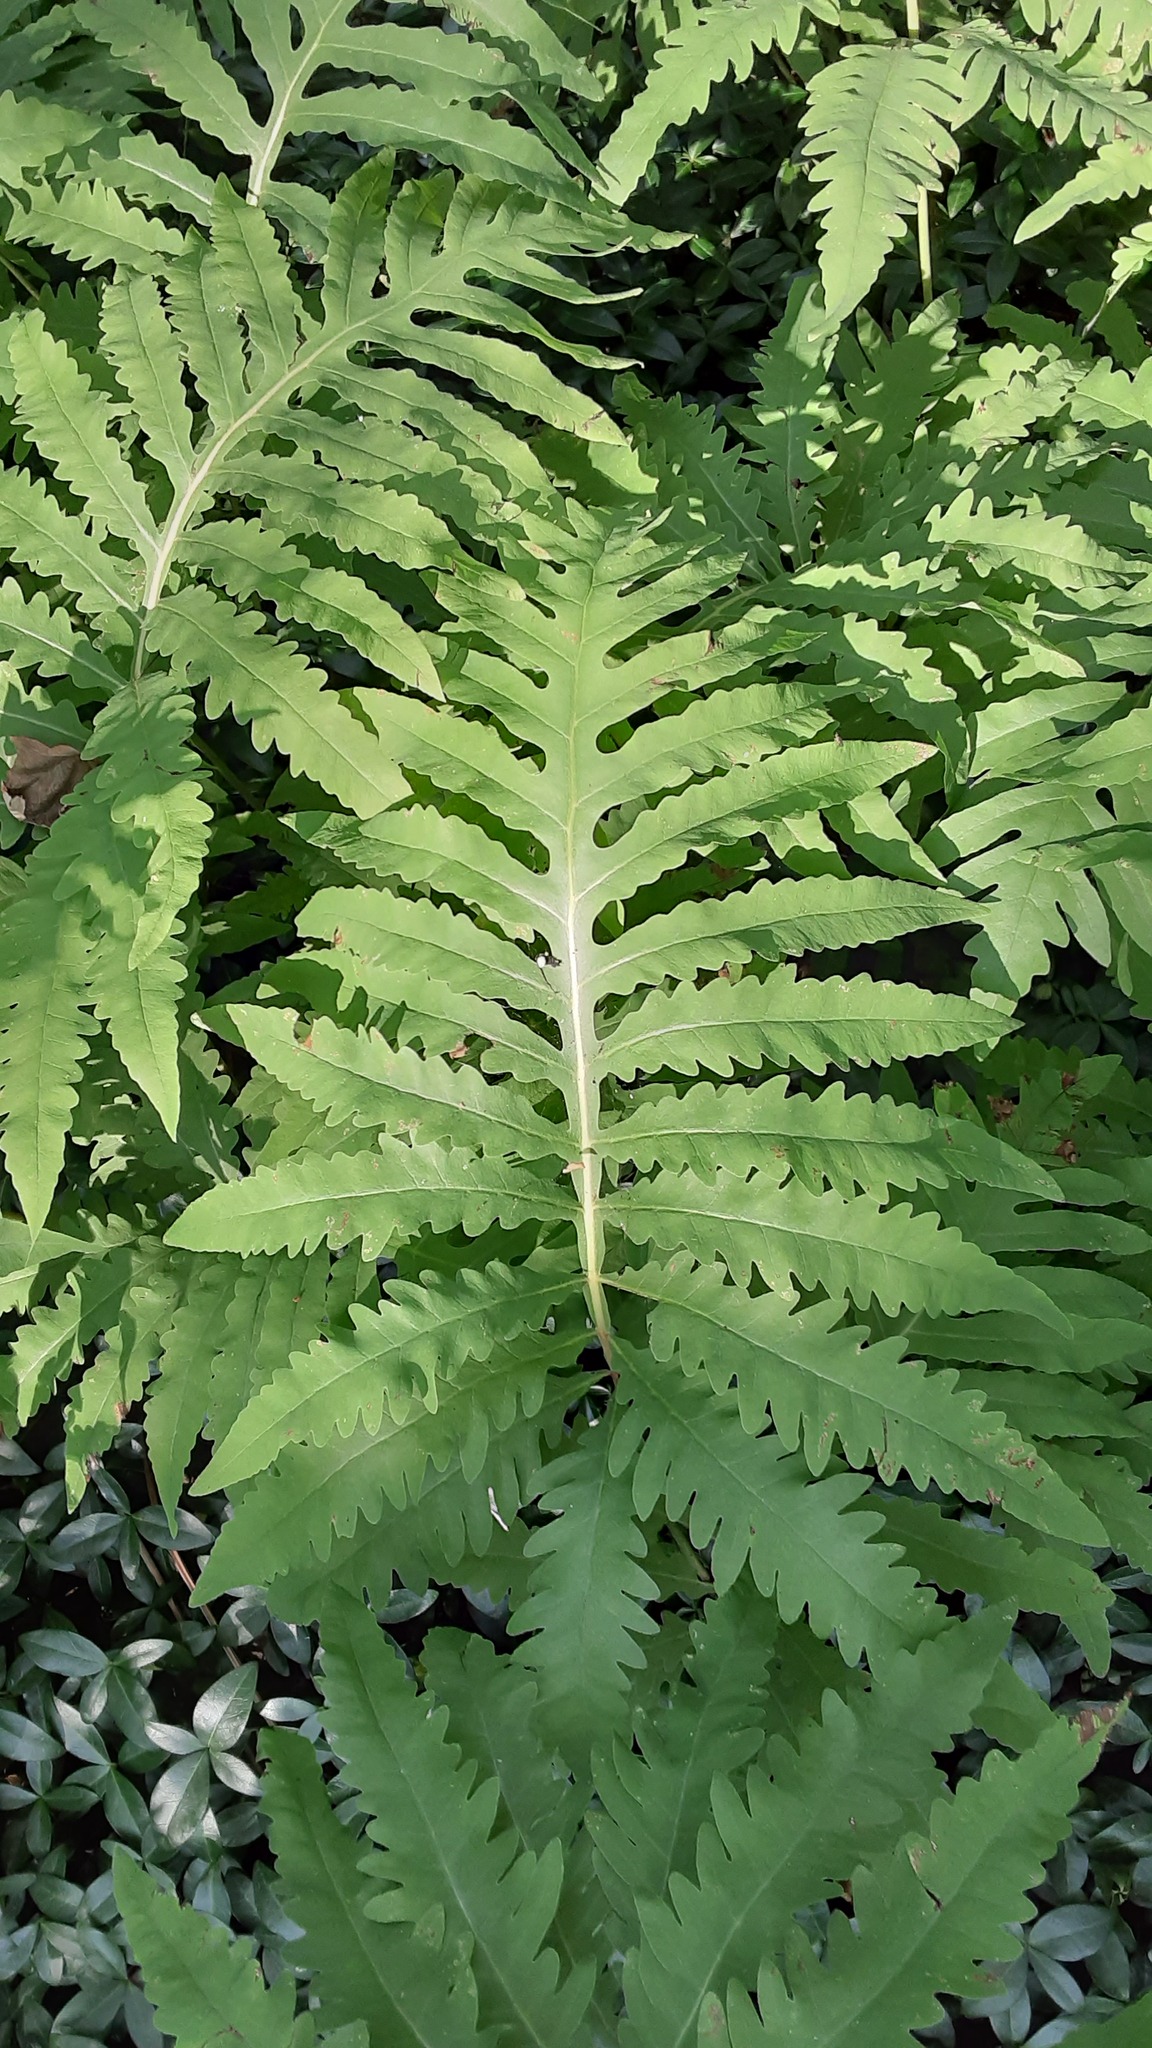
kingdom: Plantae
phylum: Tracheophyta
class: Polypodiopsida
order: Polypodiales
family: Onocleaceae
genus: Onoclea
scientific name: Onoclea sensibilis
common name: Sensitive fern
